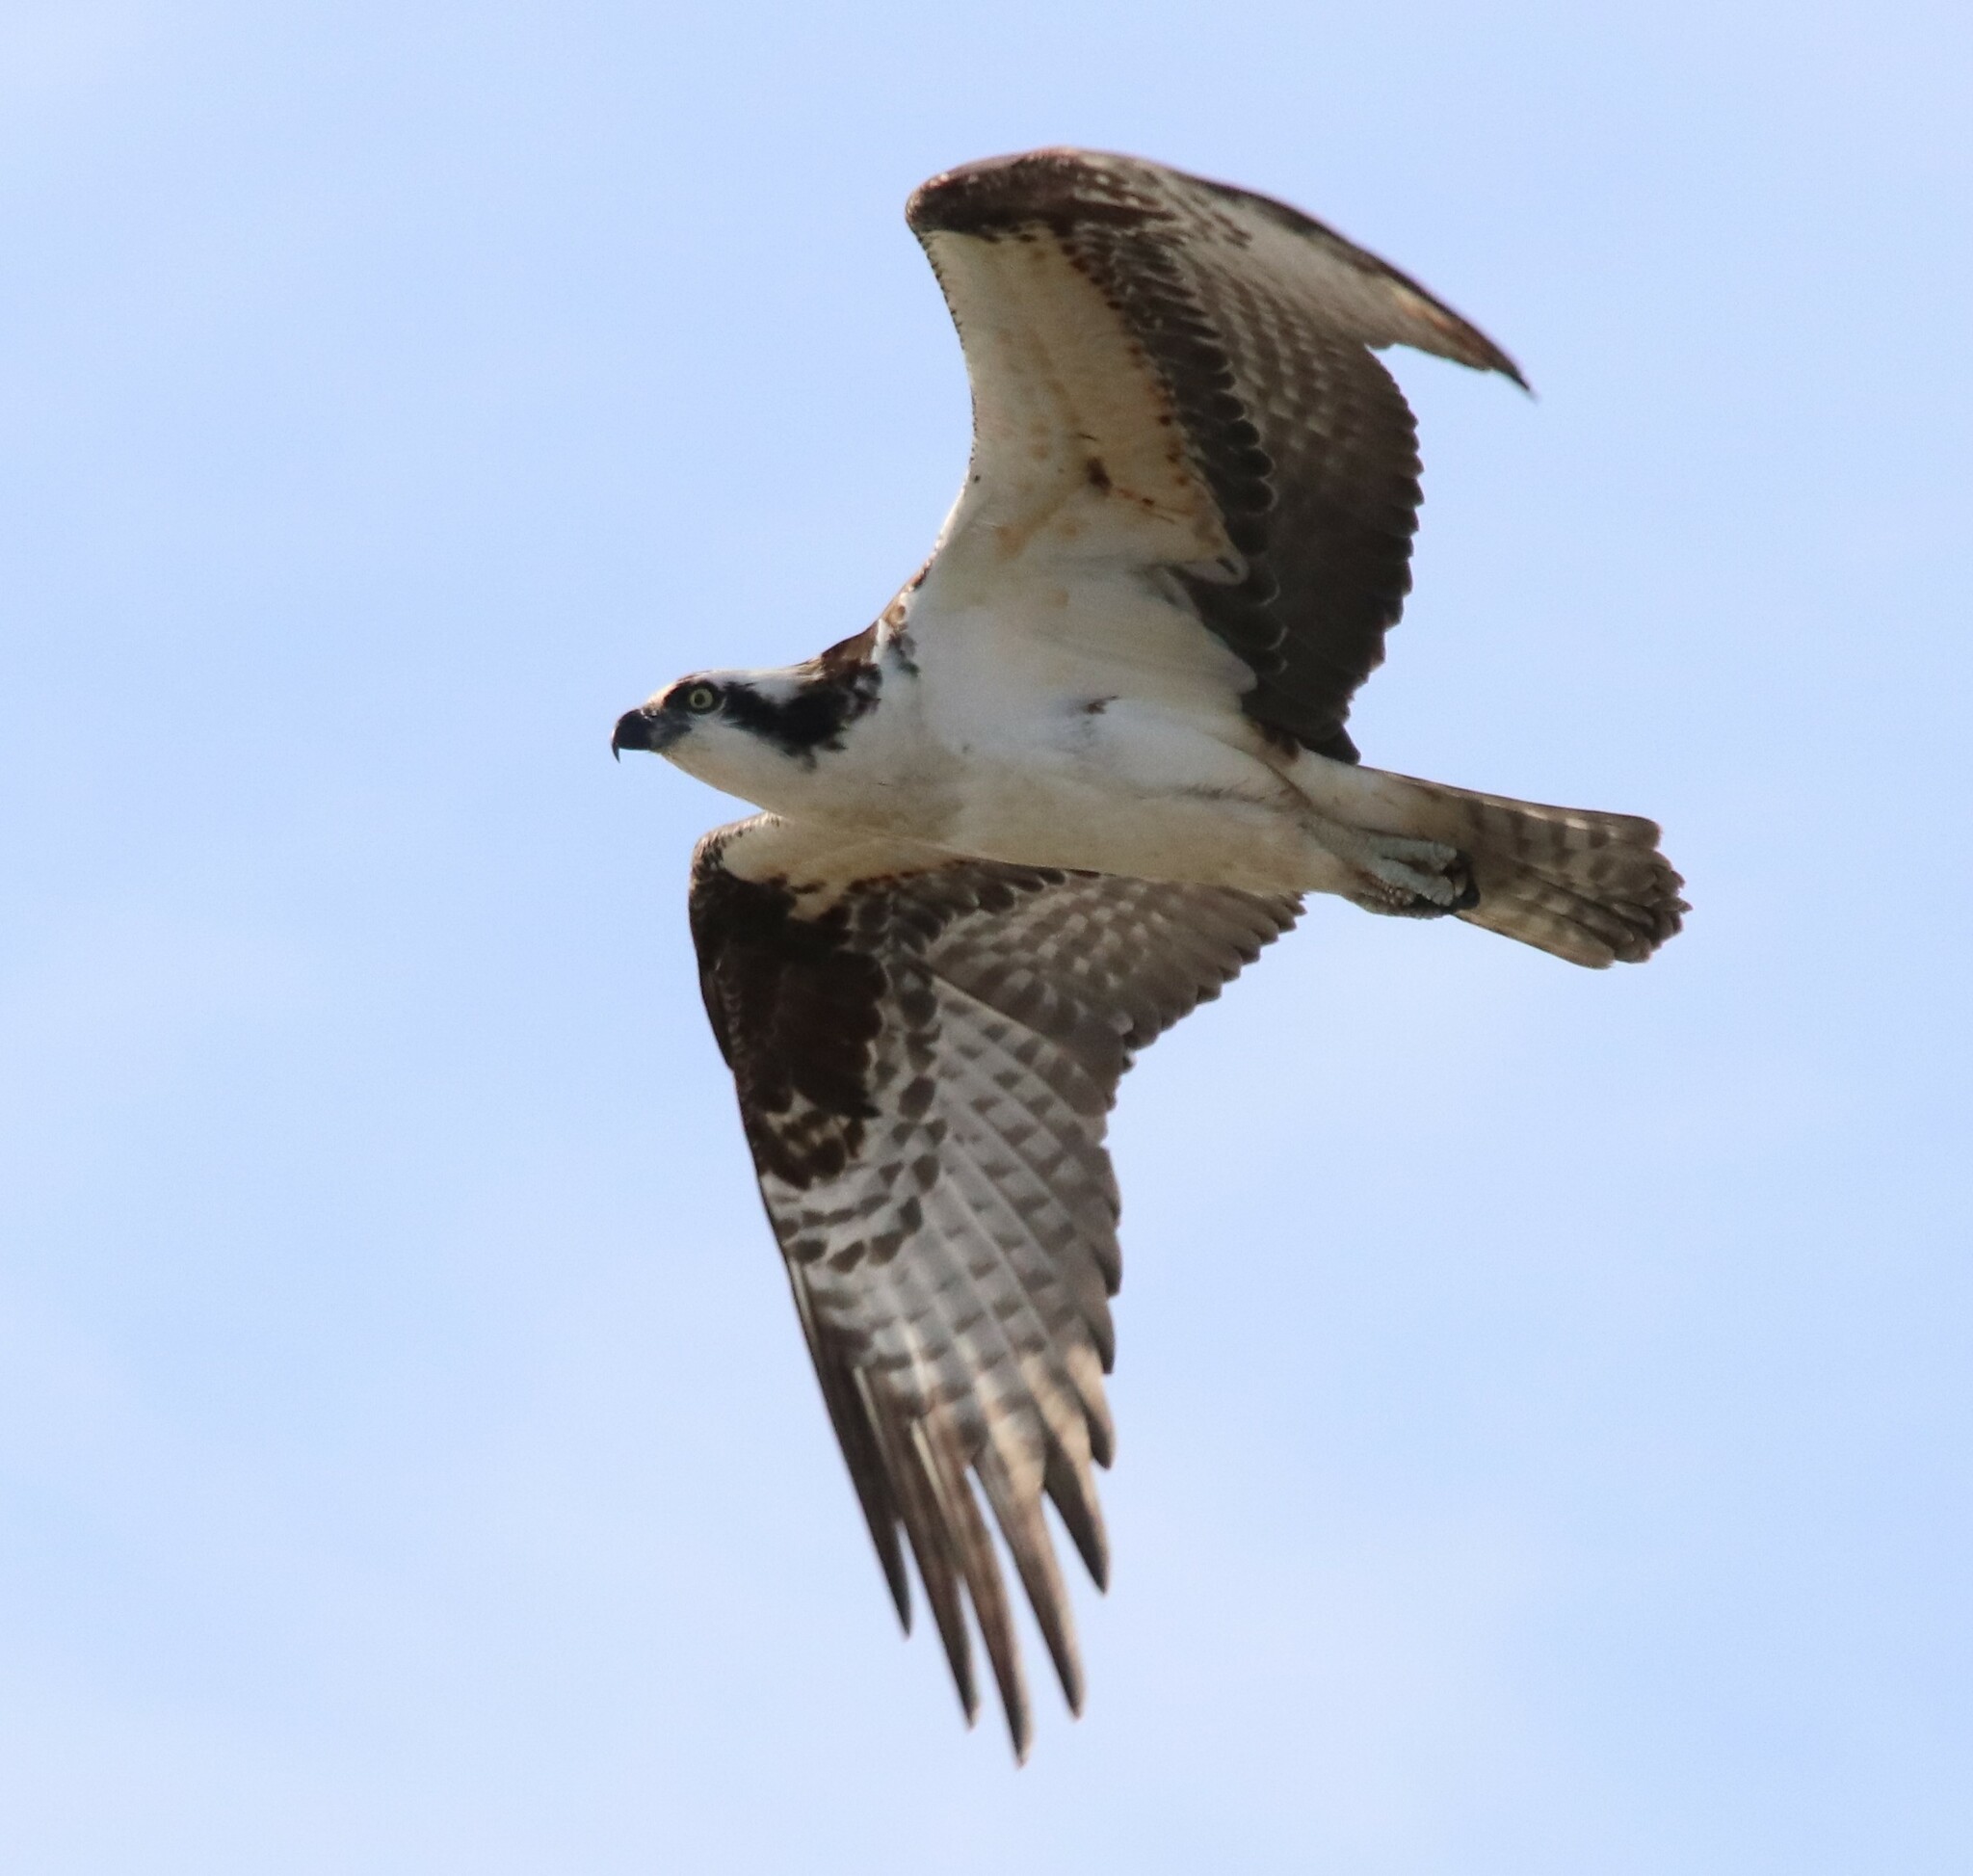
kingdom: Animalia
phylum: Chordata
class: Aves
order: Accipitriformes
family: Pandionidae
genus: Pandion
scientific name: Pandion haliaetus
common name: Osprey
